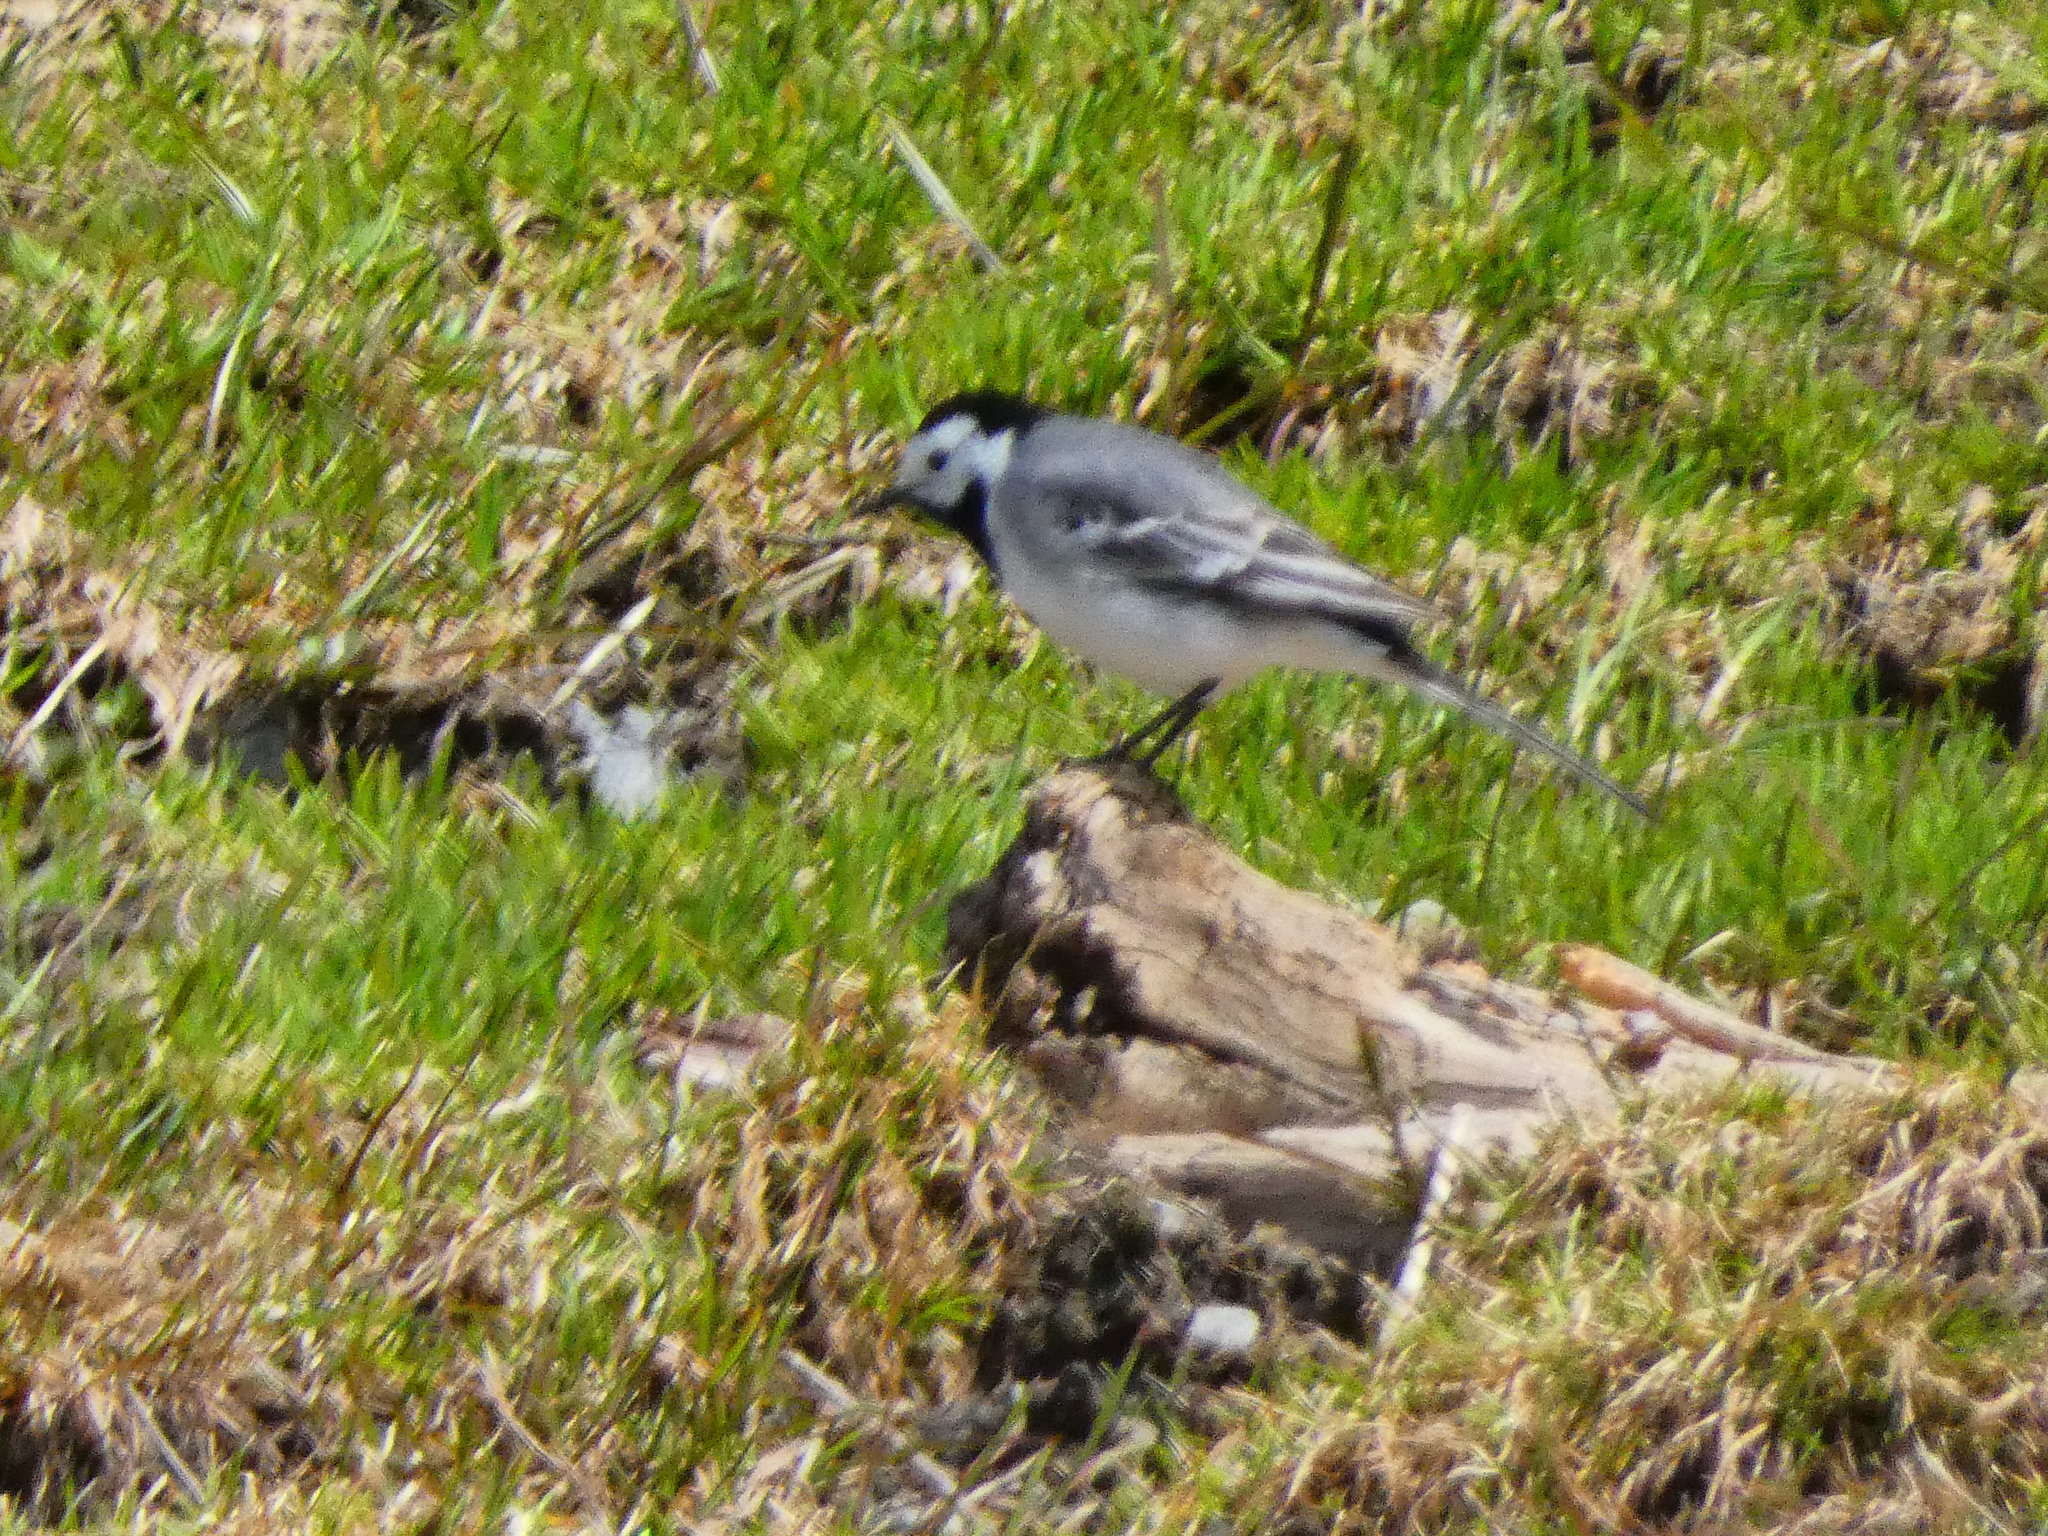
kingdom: Animalia
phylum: Chordata
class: Aves
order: Passeriformes
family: Motacillidae
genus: Motacilla
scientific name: Motacilla alba
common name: White wagtail
